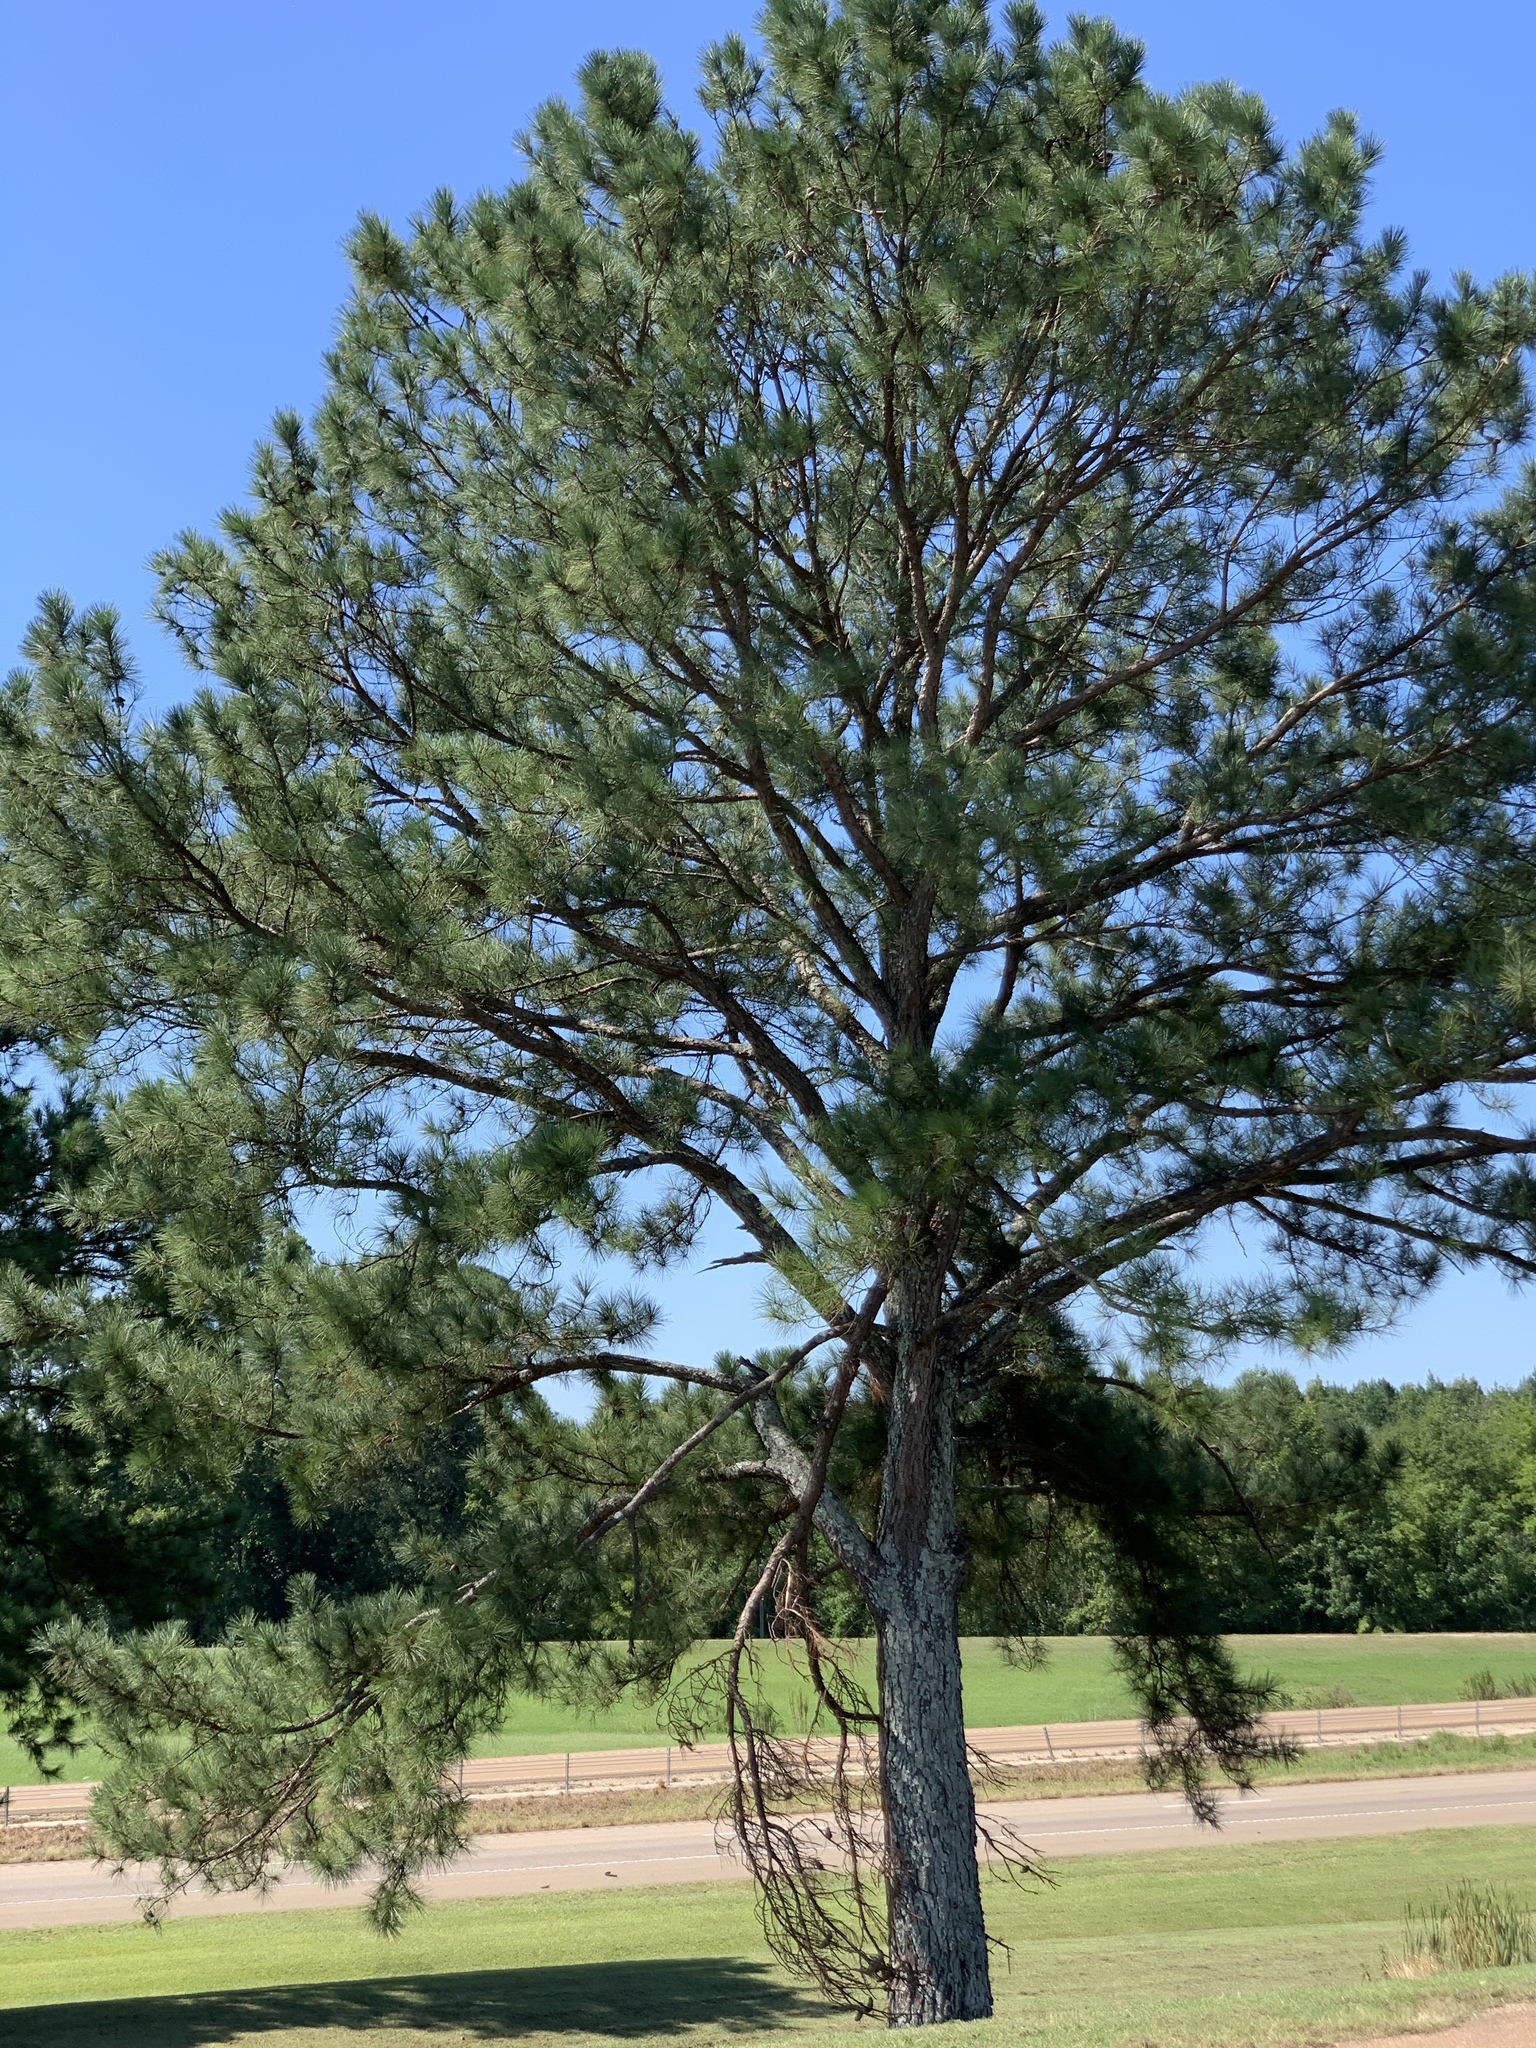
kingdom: Plantae
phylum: Tracheophyta
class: Pinopsida
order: Pinales
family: Pinaceae
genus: Pinus
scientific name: Pinus taeda
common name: Loblolly pine
